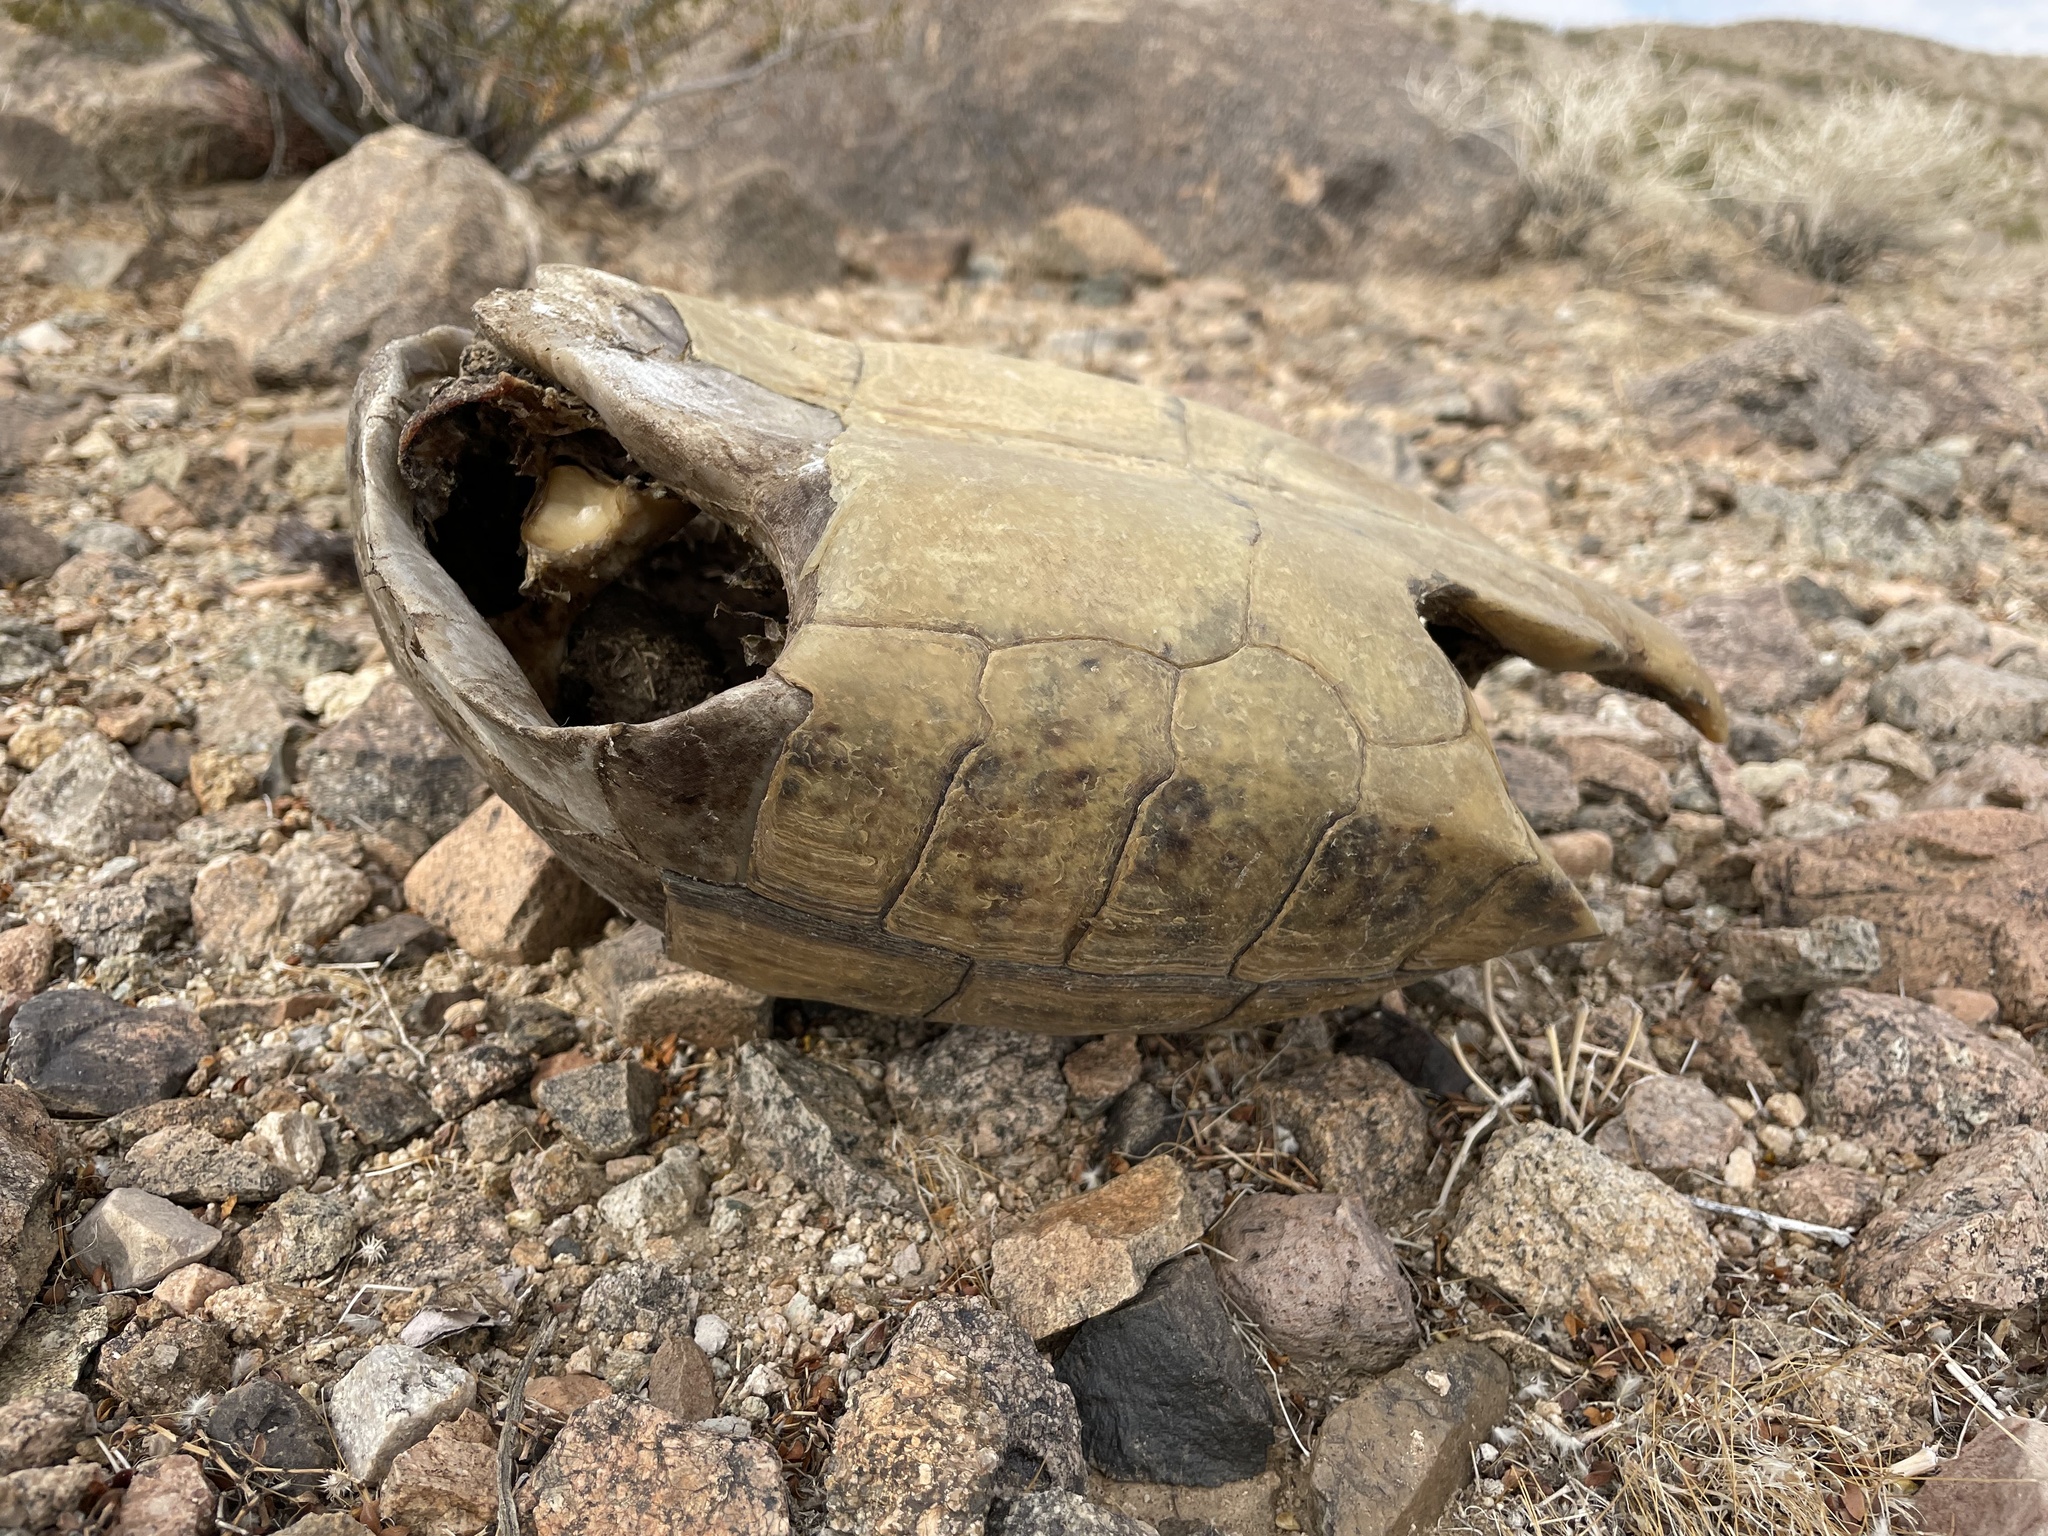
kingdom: Animalia
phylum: Chordata
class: Testudines
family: Testudinidae
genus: Gopherus
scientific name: Gopherus agassizii
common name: Mojave desert tortoise
